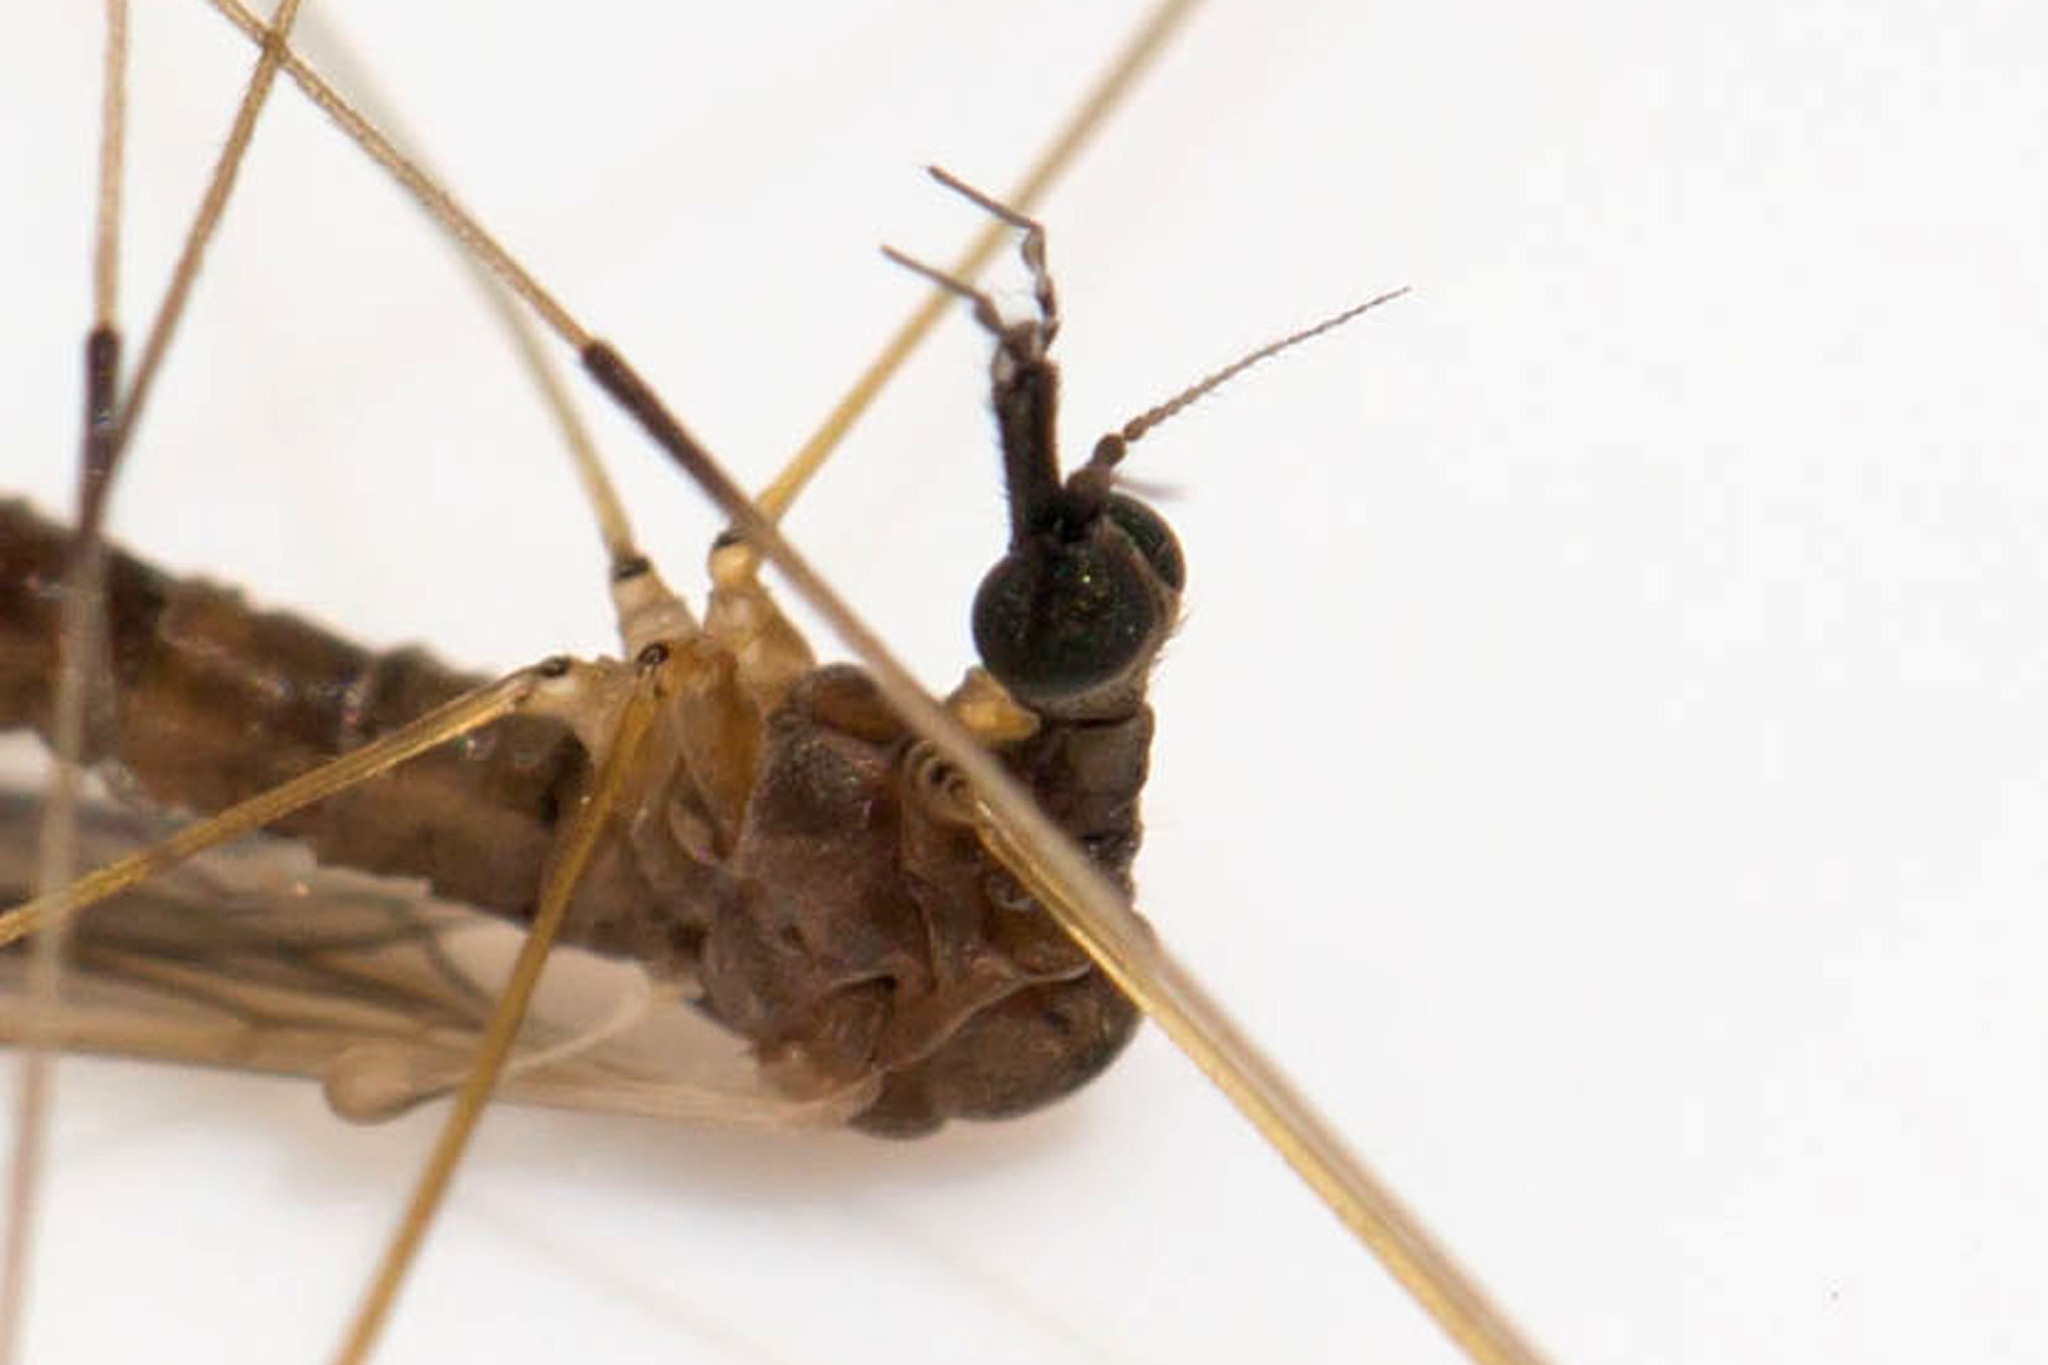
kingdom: Animalia
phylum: Arthropoda
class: Insecta
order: Diptera
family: Limoniidae
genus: Helius
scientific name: Helius flavipes
